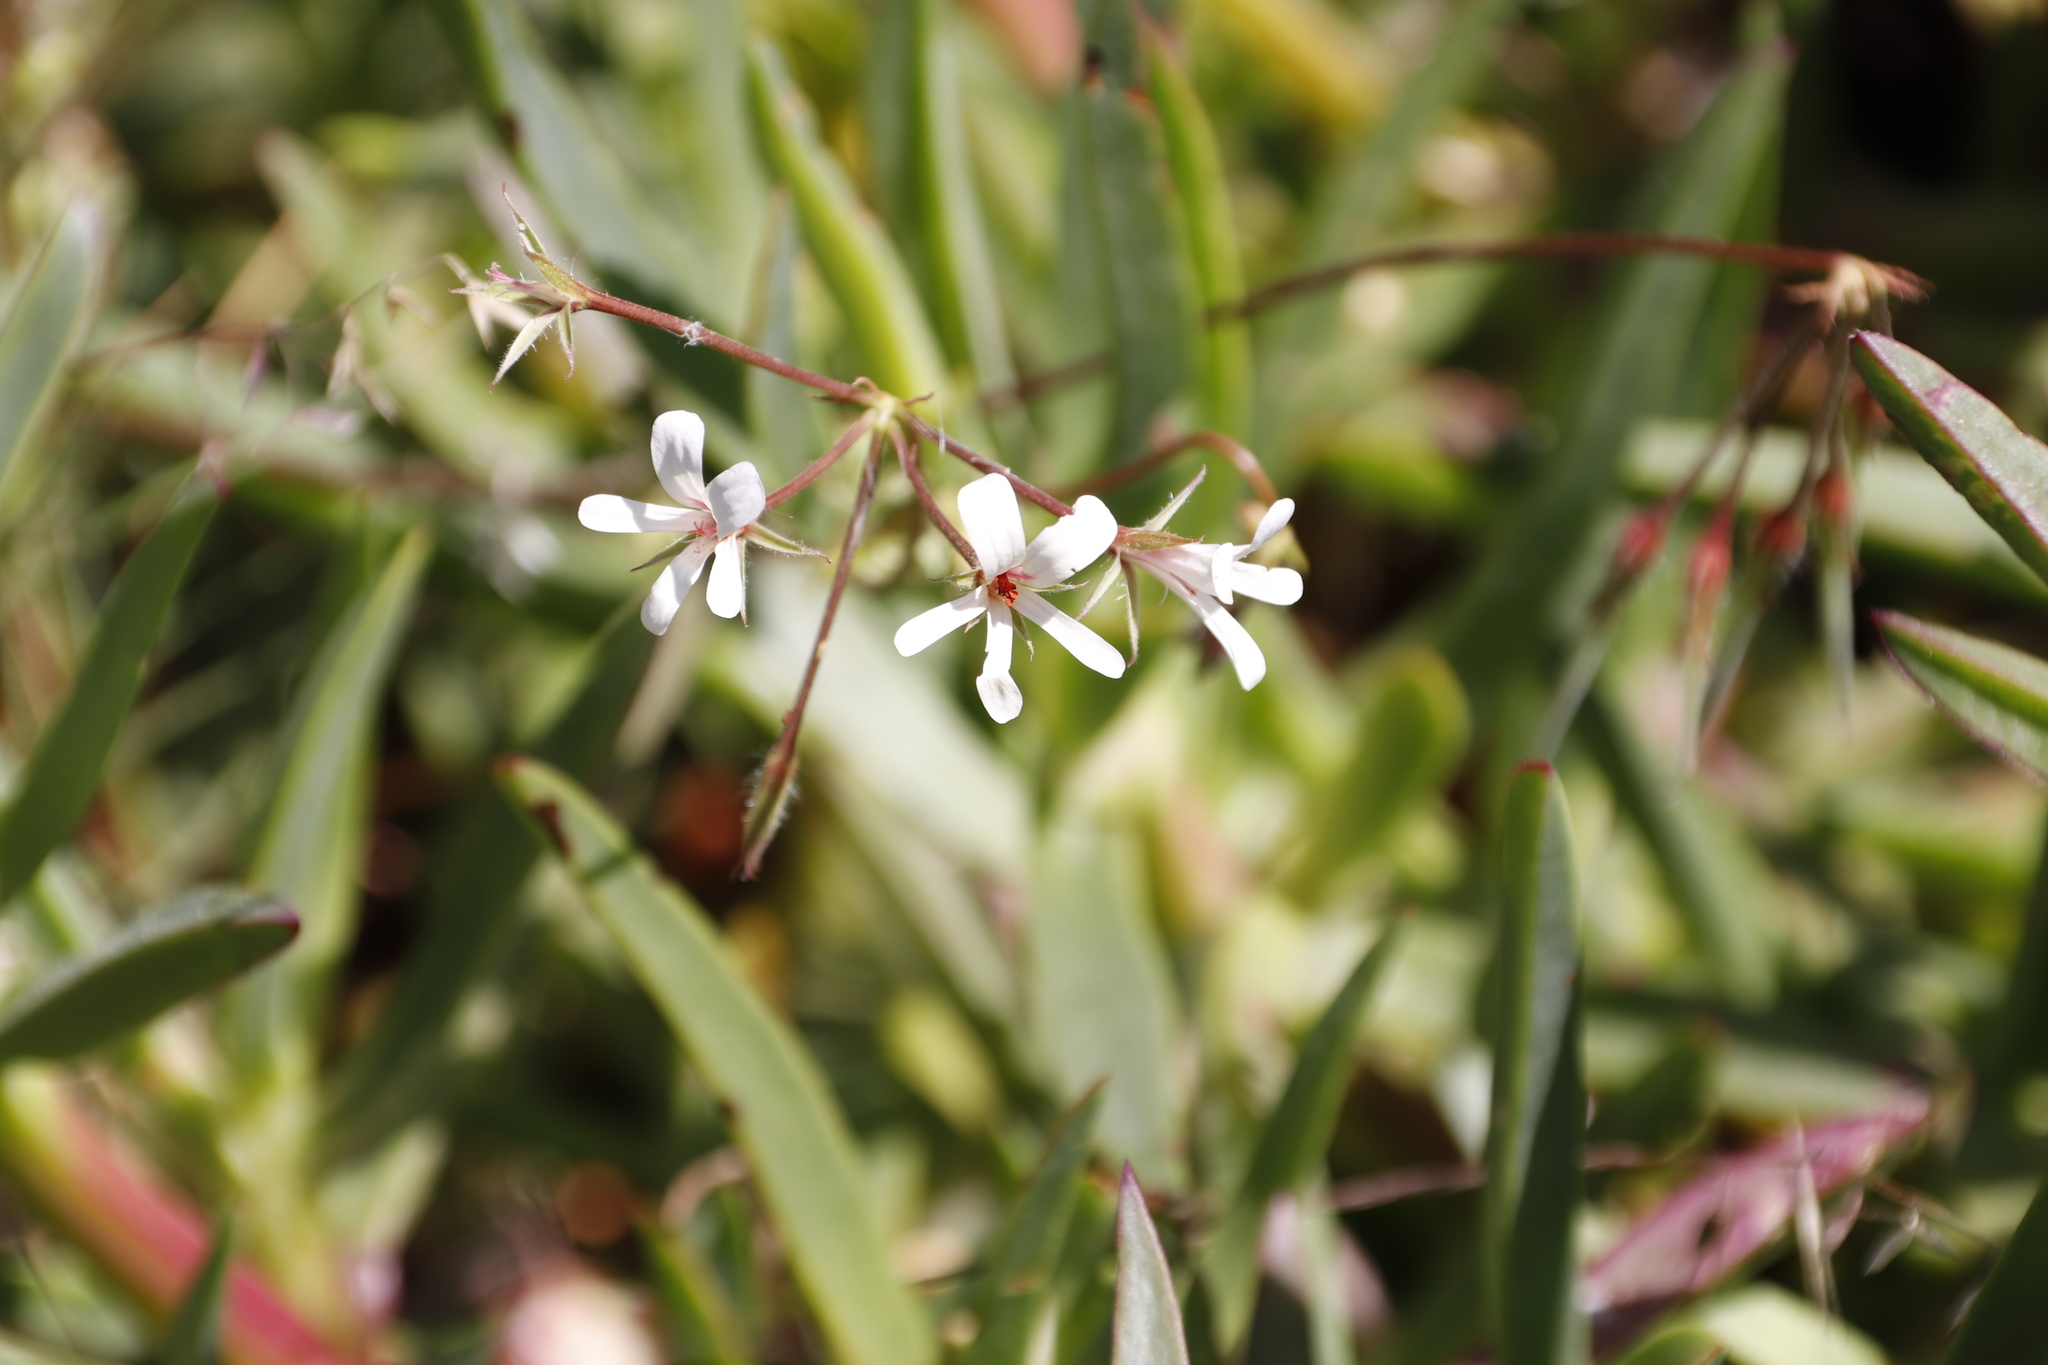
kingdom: Plantae
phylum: Tracheophyta
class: Magnoliopsida
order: Geraniales
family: Geraniaceae
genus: Pelargonium
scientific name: Pelargonium alchemilloides
